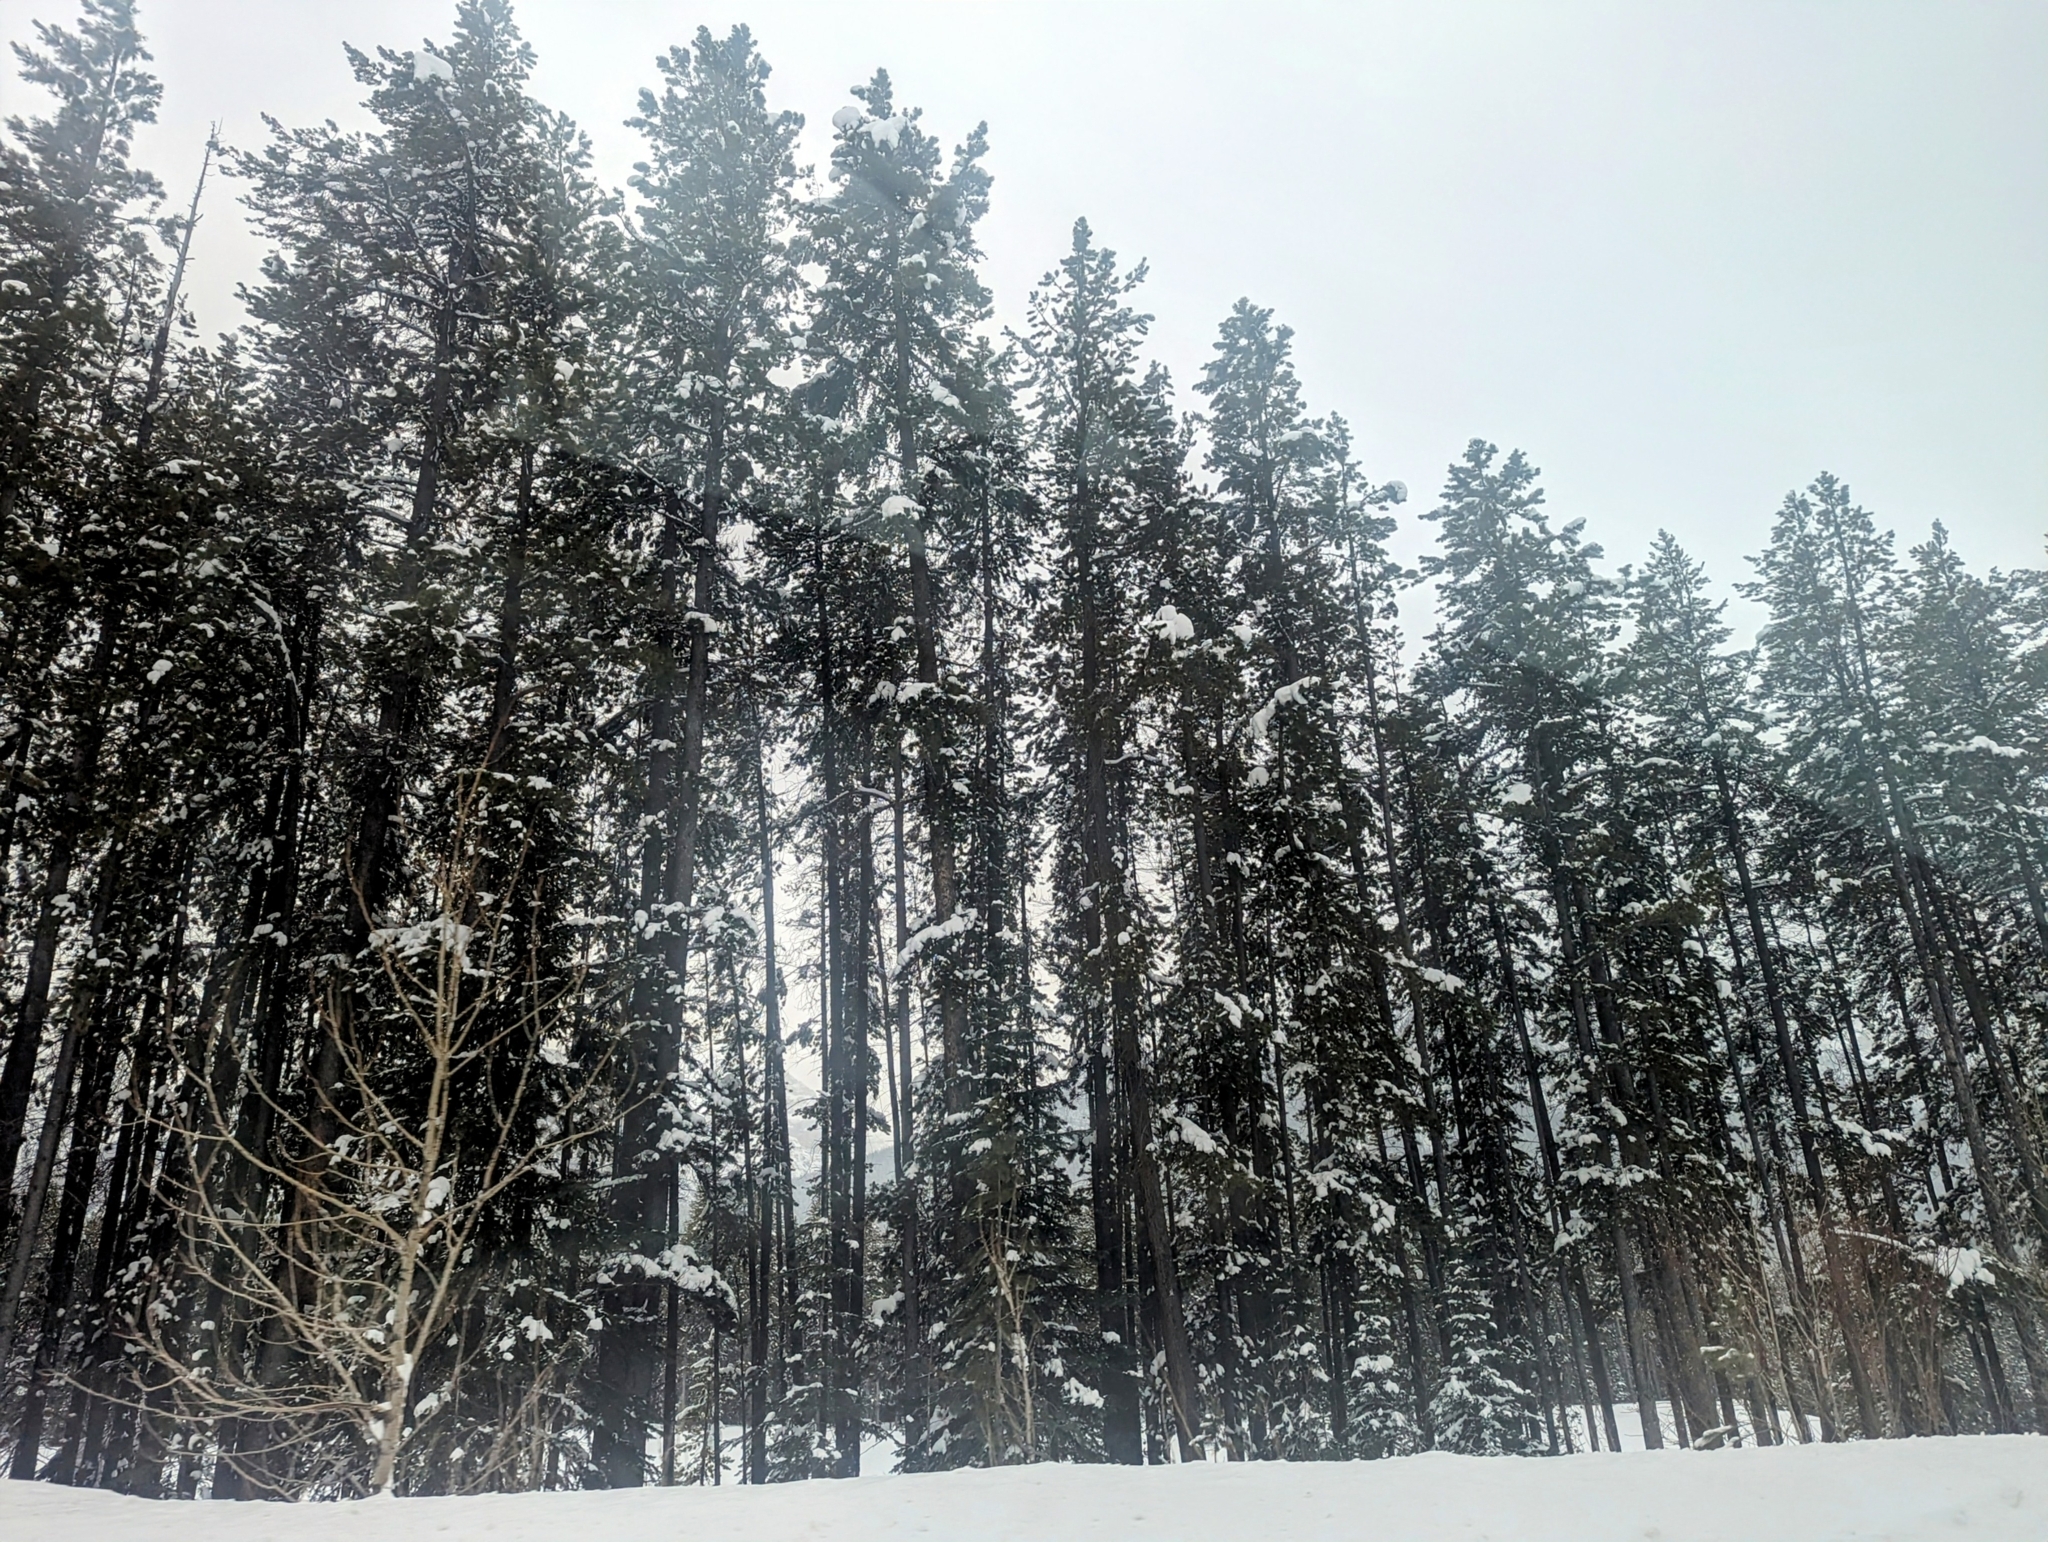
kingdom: Plantae
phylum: Tracheophyta
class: Pinopsida
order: Pinales
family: Pinaceae
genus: Pinus
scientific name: Pinus contorta
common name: Lodgepole pine
